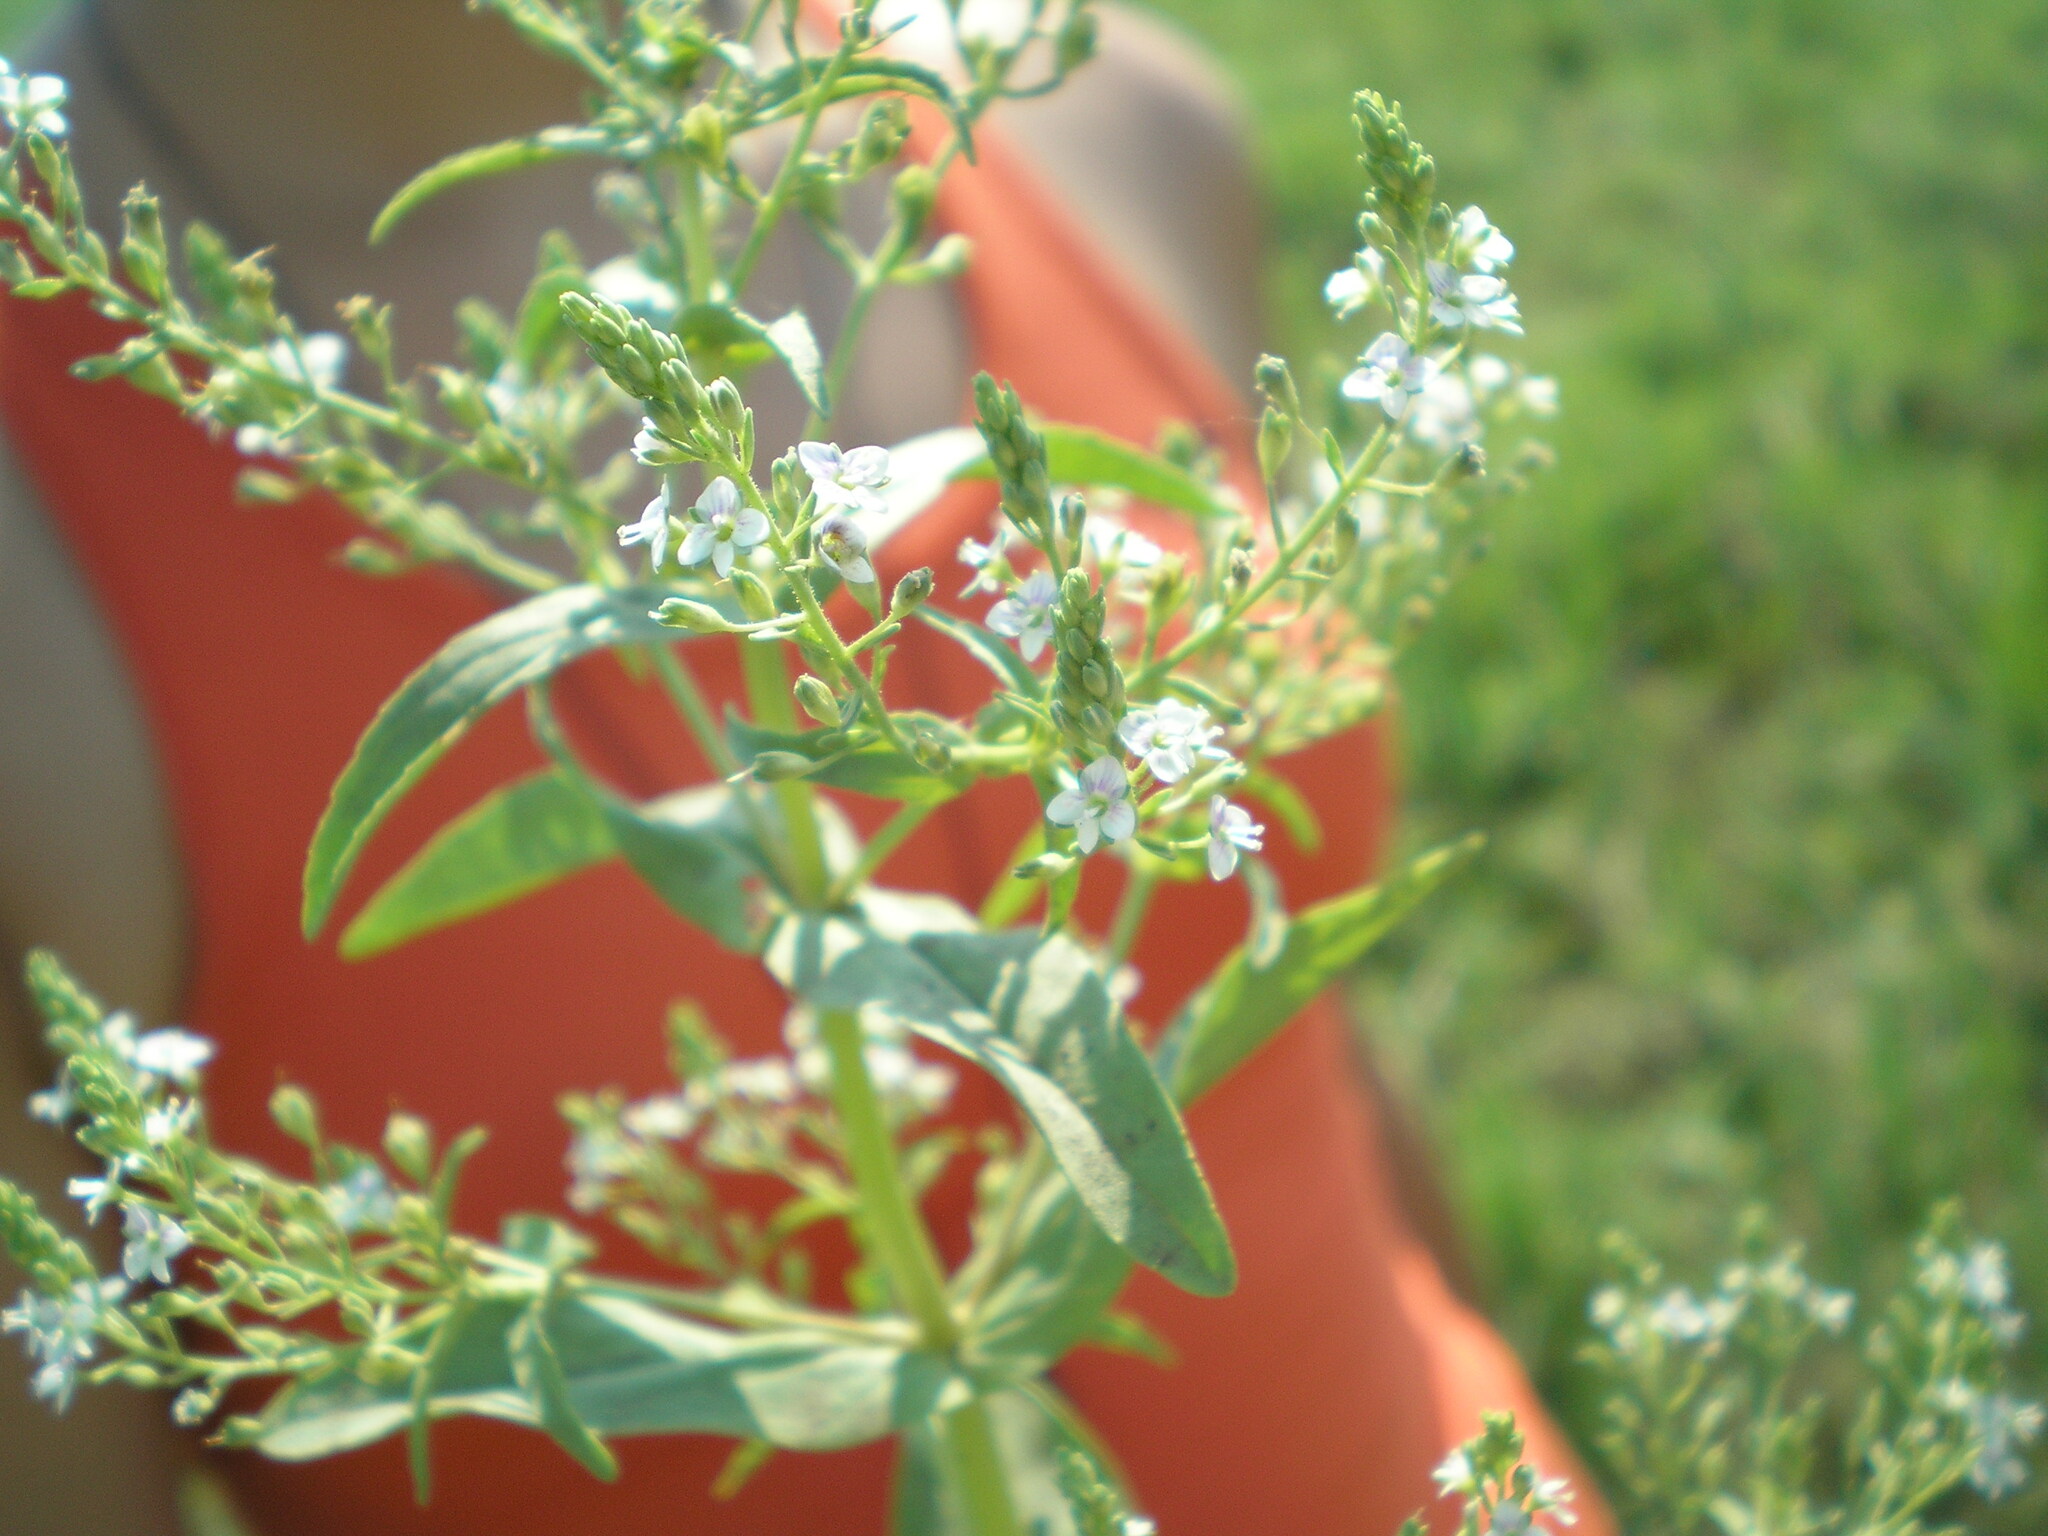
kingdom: Plantae
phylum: Tracheophyta
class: Magnoliopsida
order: Lamiales
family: Plantaginaceae
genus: Veronica
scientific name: Veronica anagallis-aquatica
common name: Water speedwell
